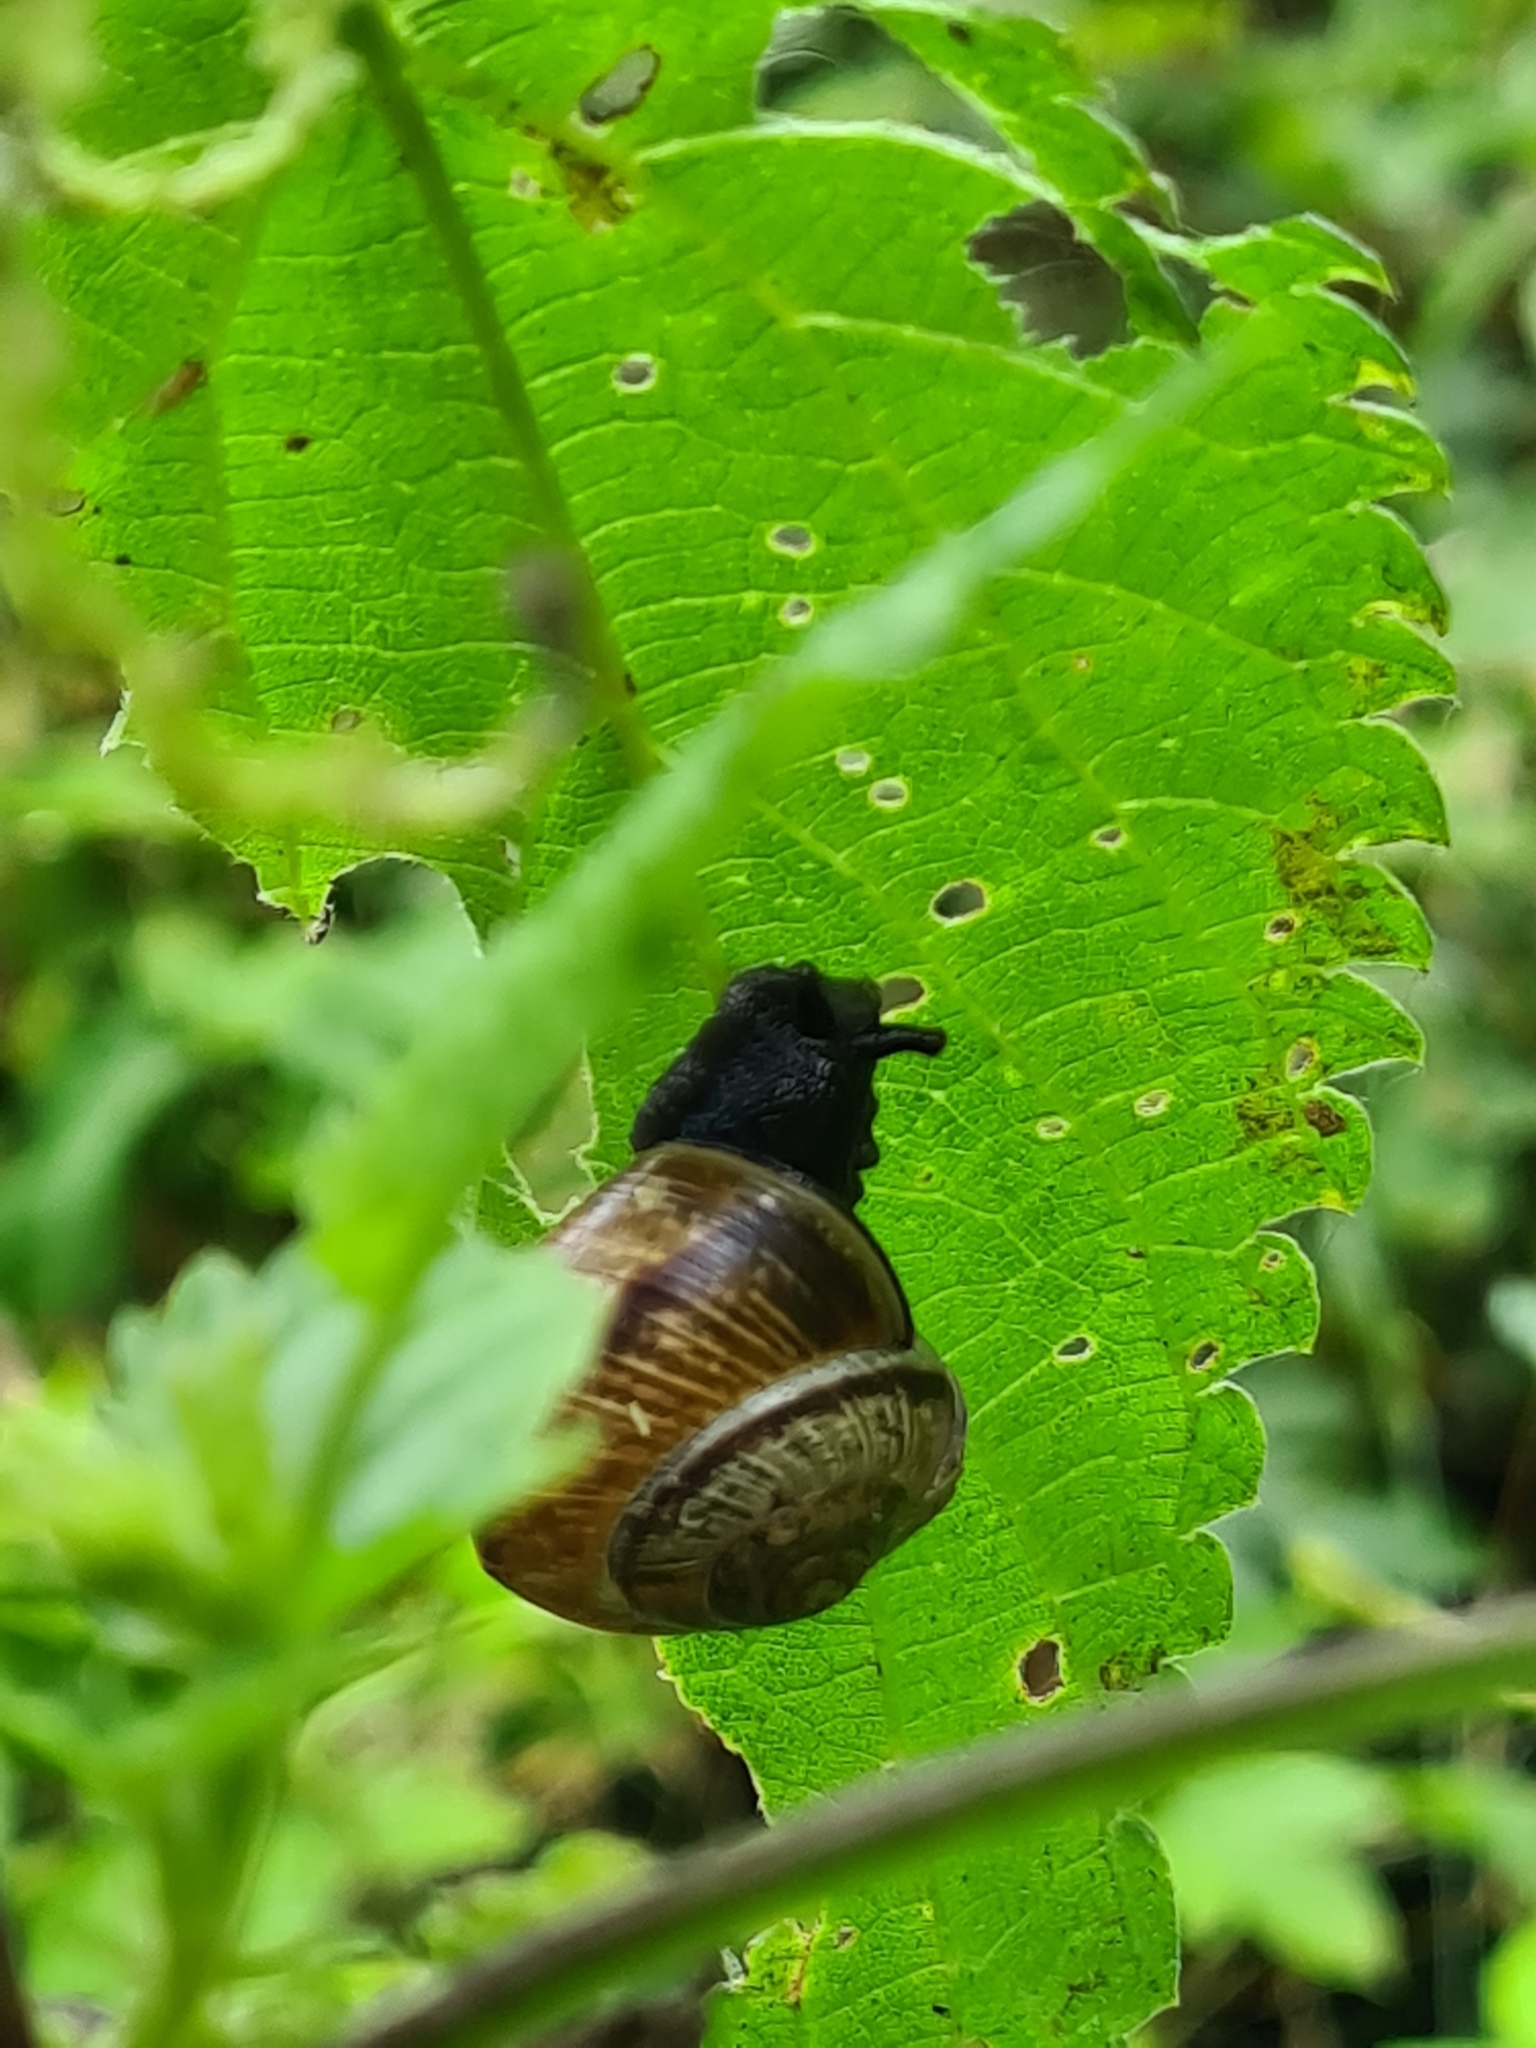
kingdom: Animalia
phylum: Mollusca
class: Gastropoda
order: Stylommatophora
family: Helicidae
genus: Arianta
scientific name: Arianta arbustorum
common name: Copse snail
